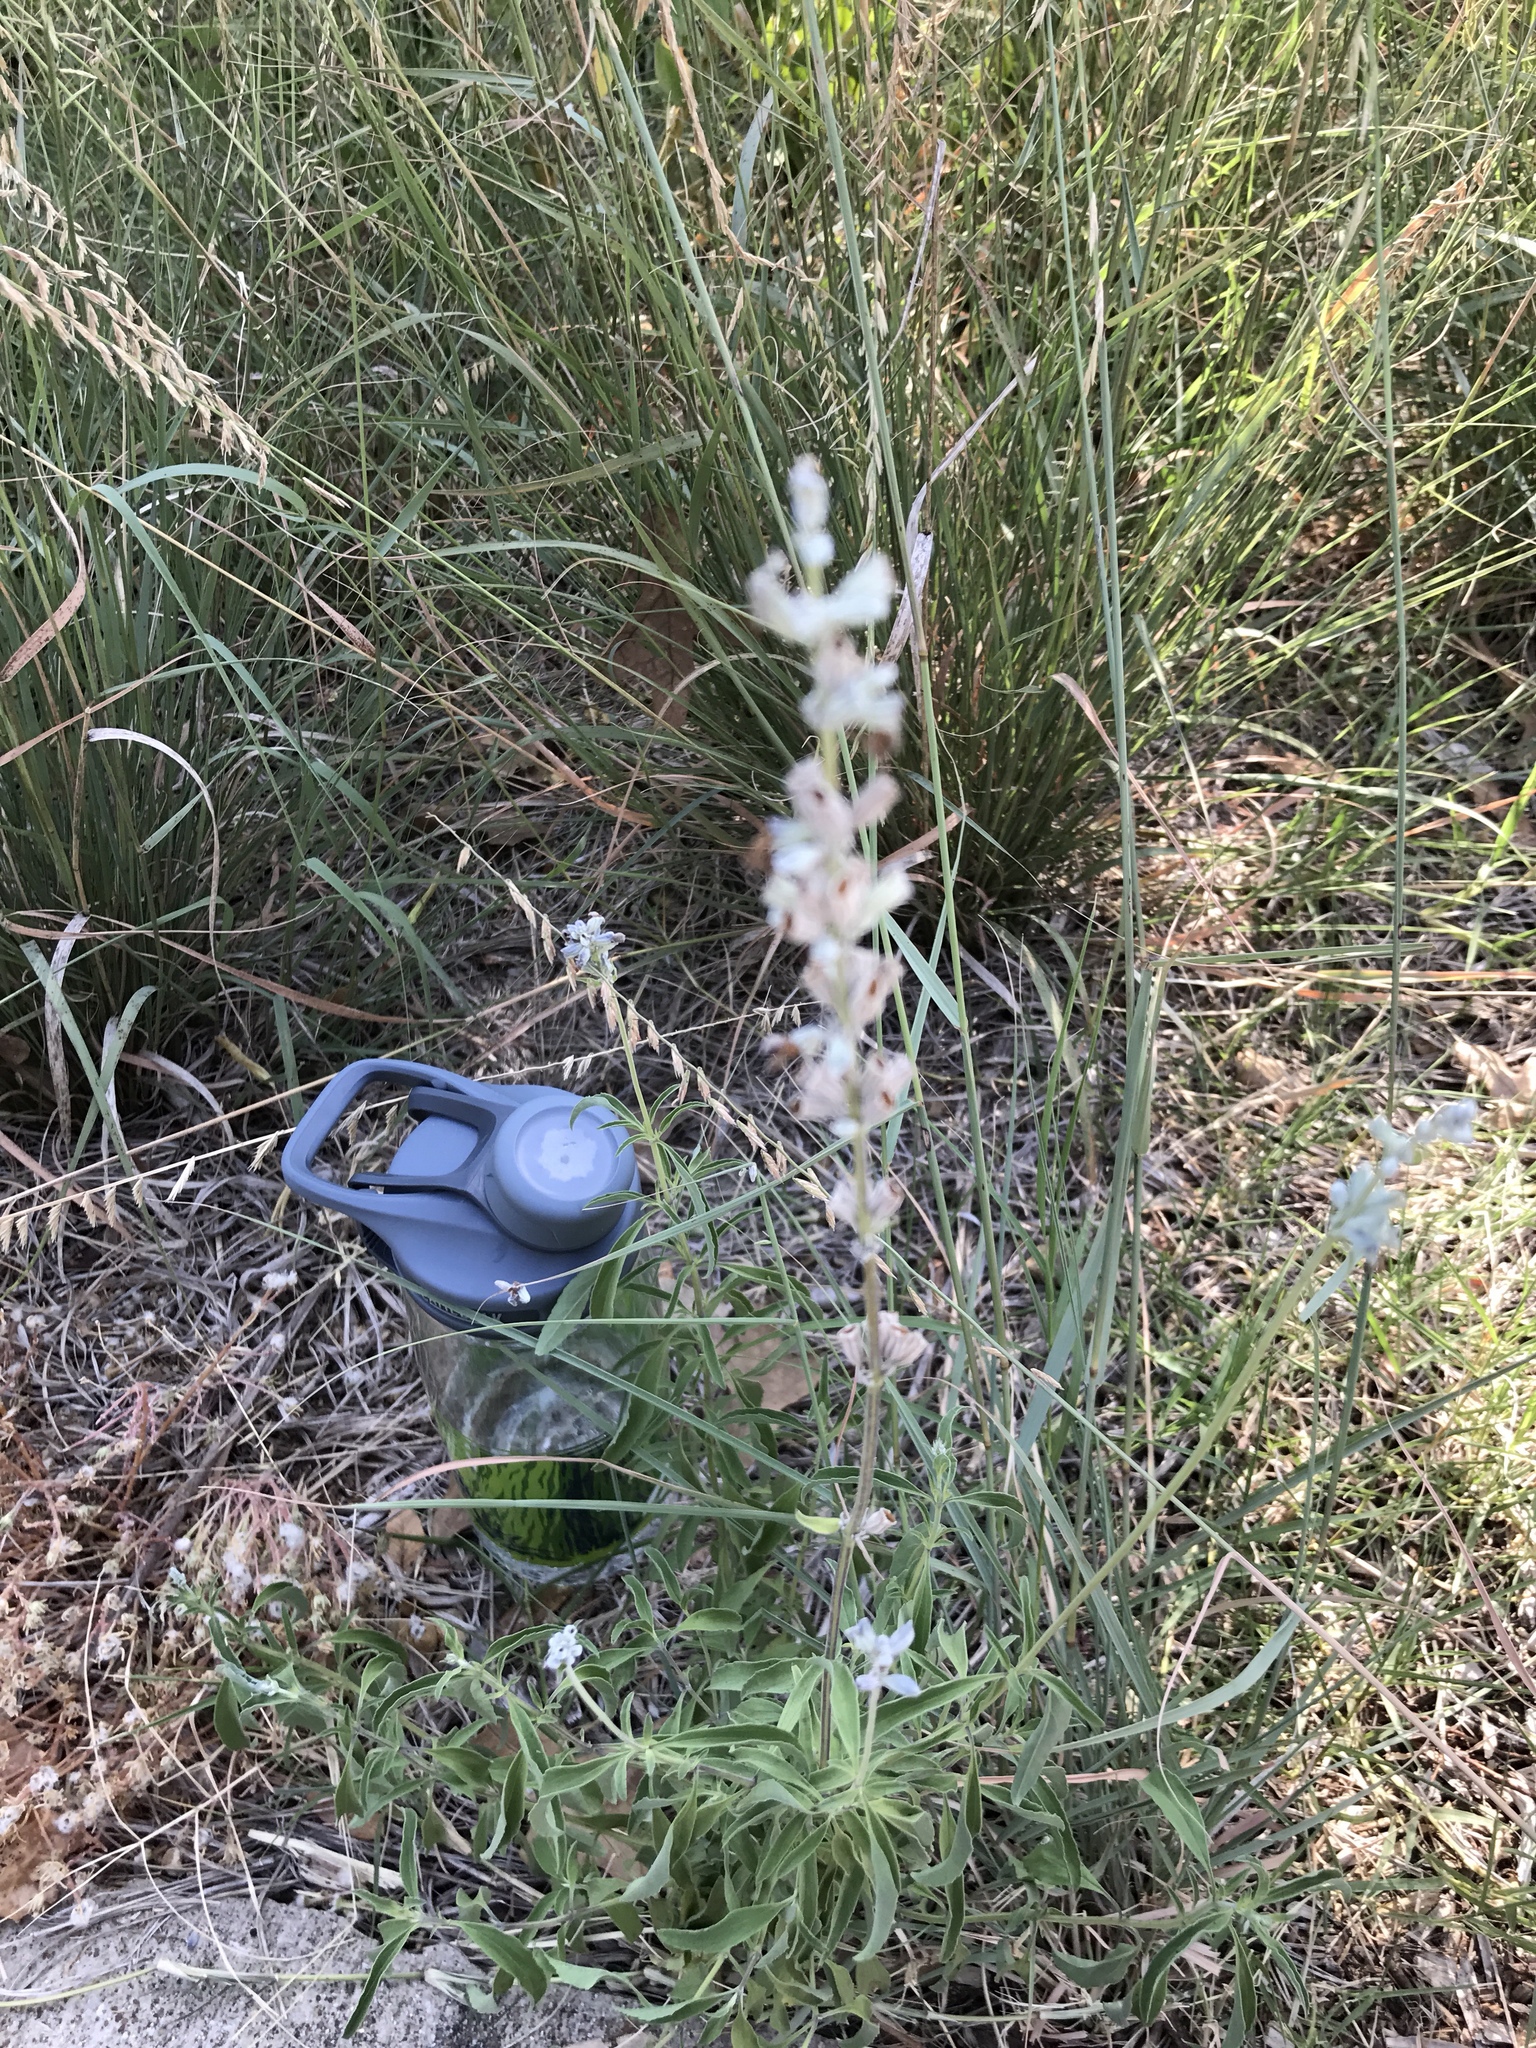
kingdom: Plantae
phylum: Tracheophyta
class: Magnoliopsida
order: Lamiales
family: Lamiaceae
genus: Salvia
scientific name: Salvia farinacea
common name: Mealy sage
